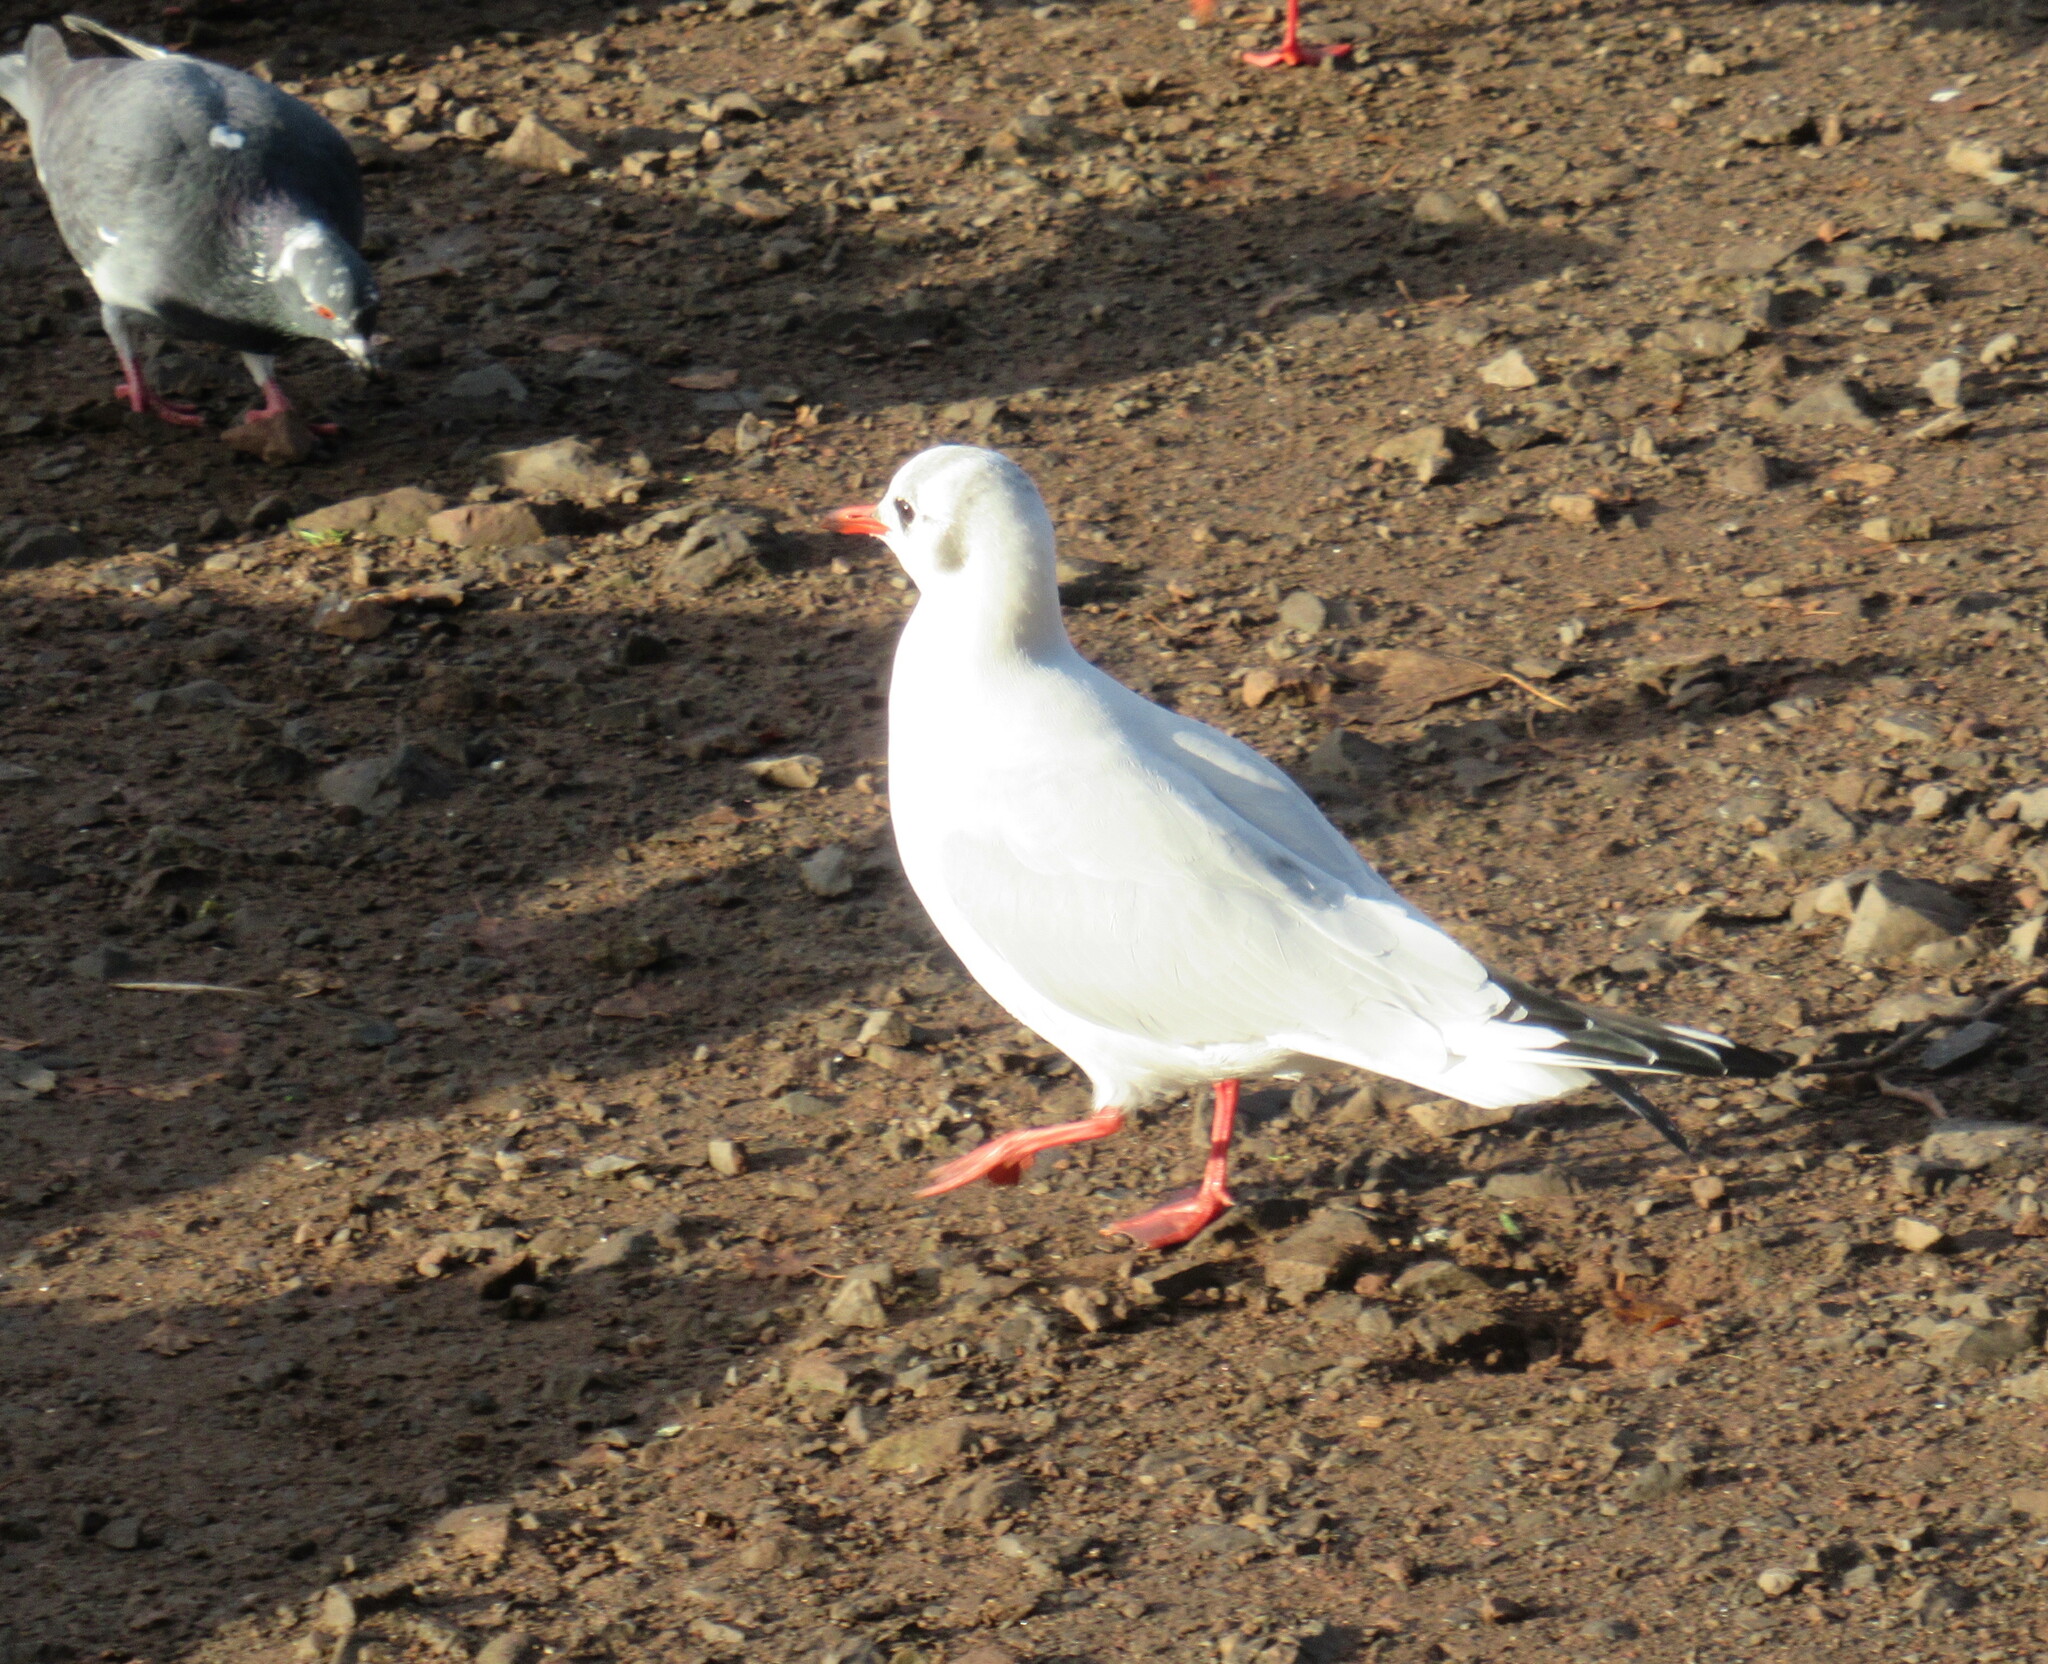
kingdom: Animalia
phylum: Chordata
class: Aves
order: Charadriiformes
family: Laridae
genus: Chroicocephalus
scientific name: Chroicocephalus ridibundus
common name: Black-headed gull
